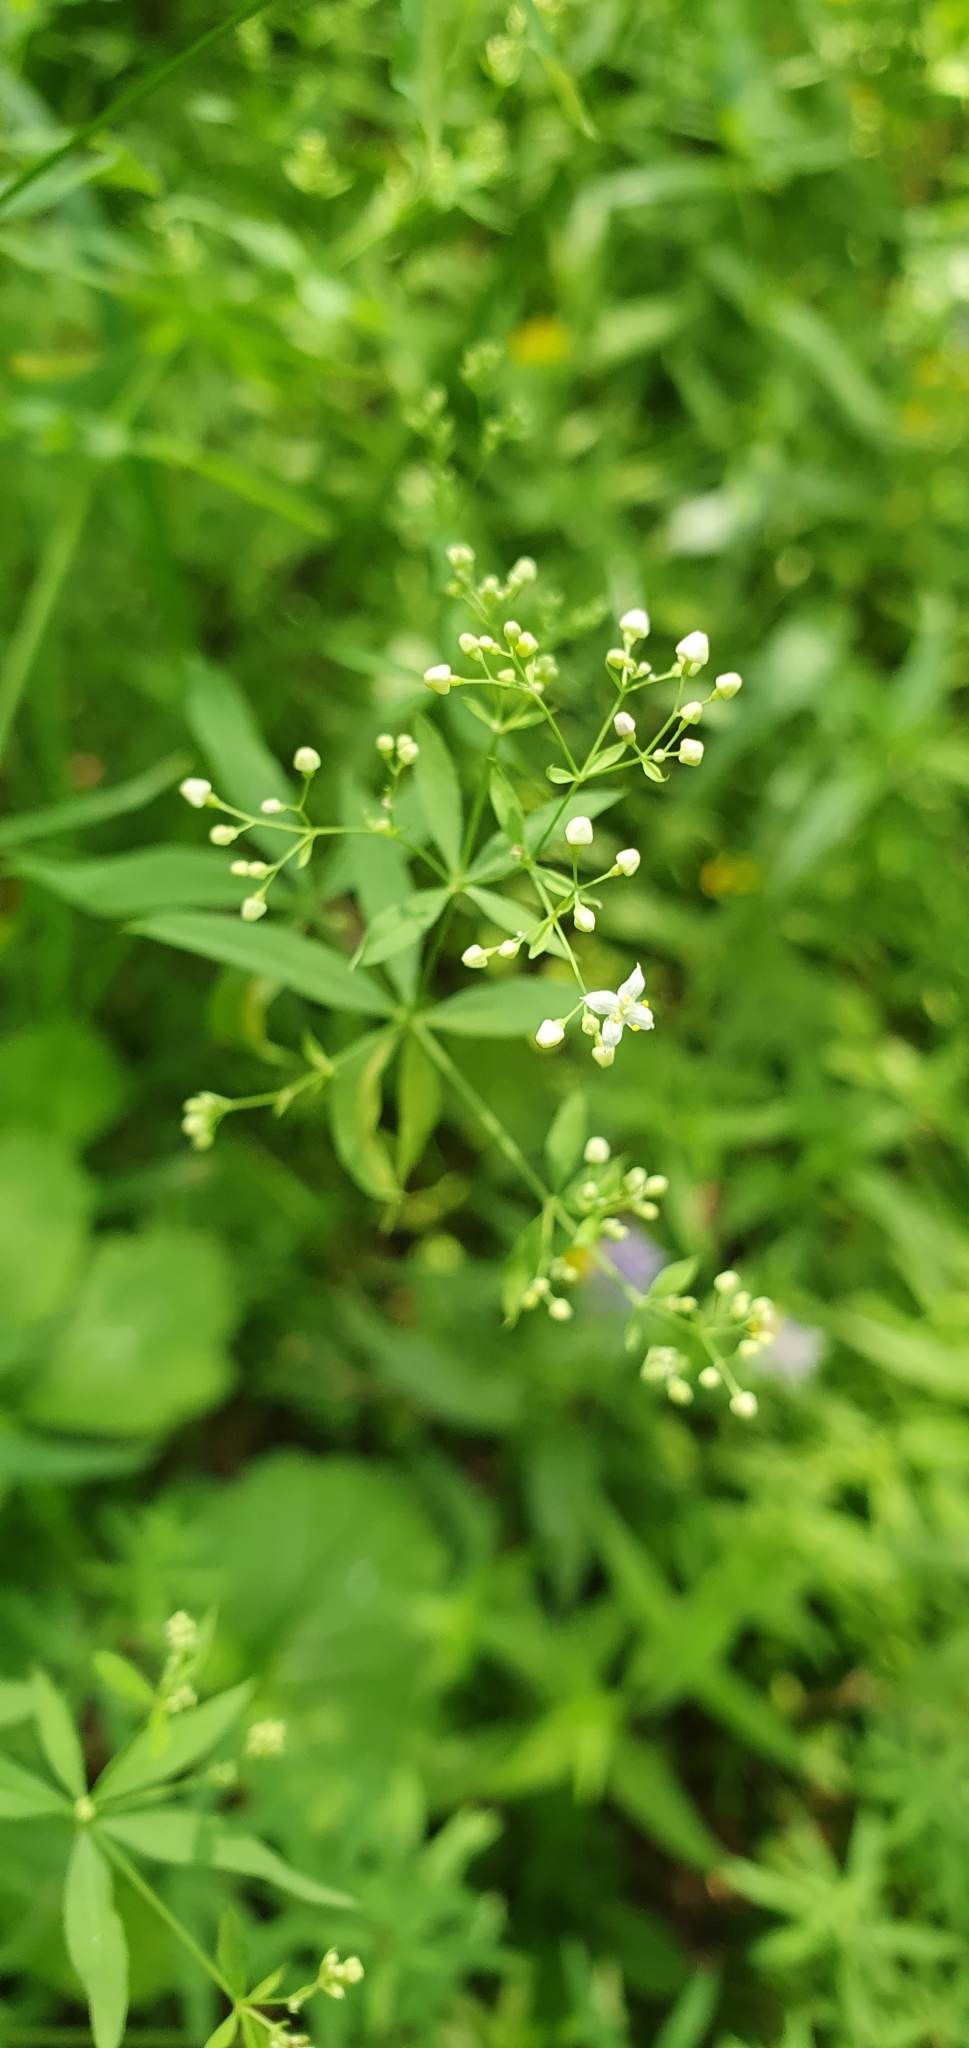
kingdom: Plantae
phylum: Tracheophyta
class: Magnoliopsida
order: Gentianales
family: Rubiaceae
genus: Galium
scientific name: Galium intermedium
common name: Bedstraw
